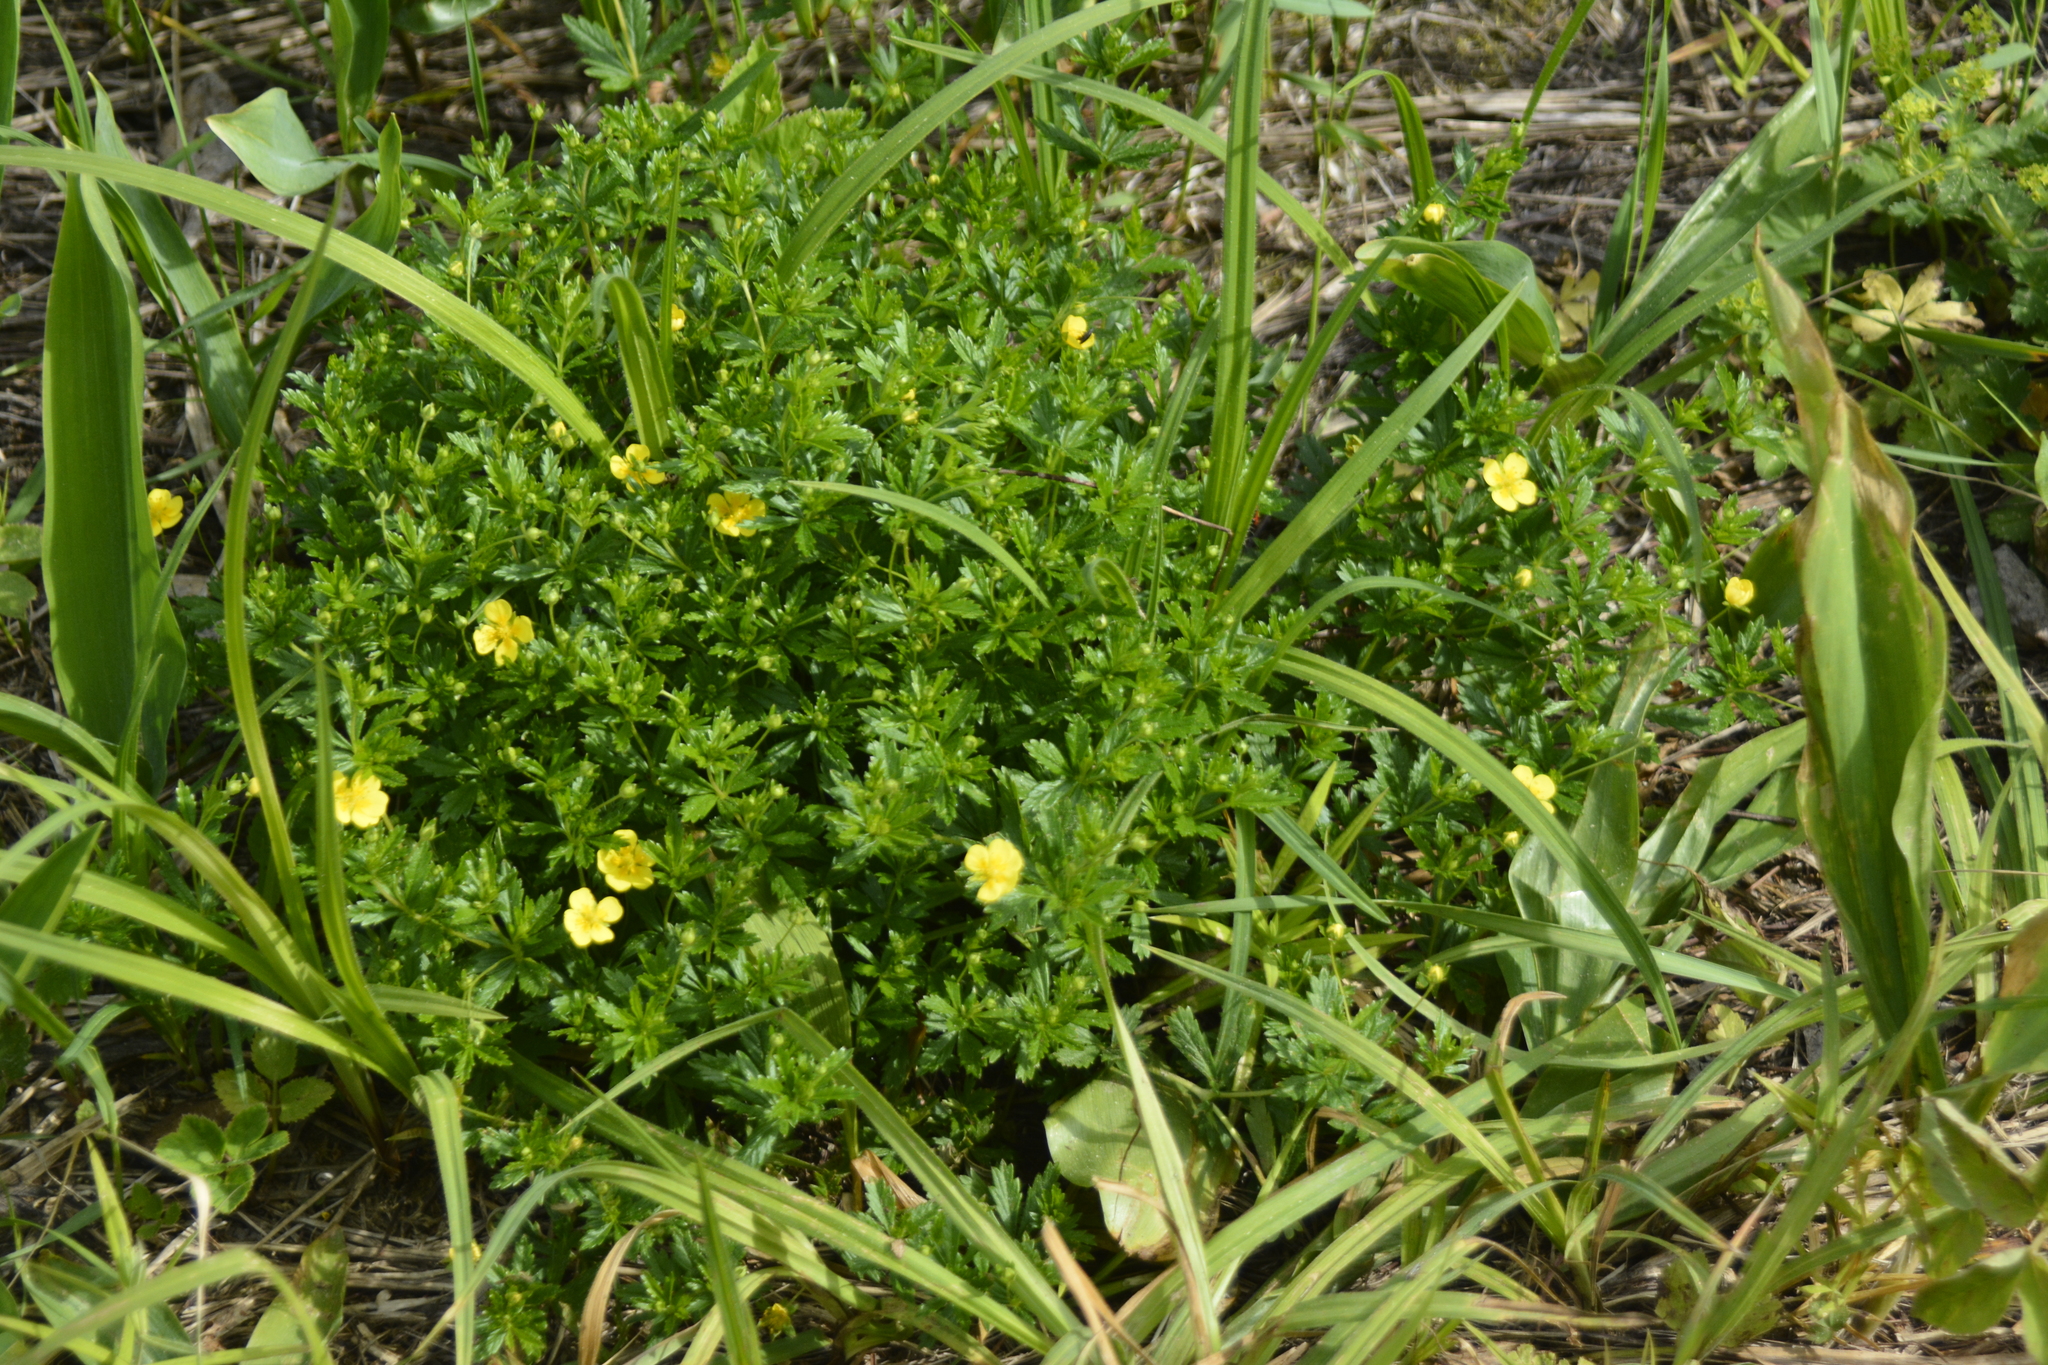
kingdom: Plantae
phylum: Tracheophyta
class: Magnoliopsida
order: Rosales
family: Rosaceae
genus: Potentilla
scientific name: Potentilla erecta
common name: Tormentil
